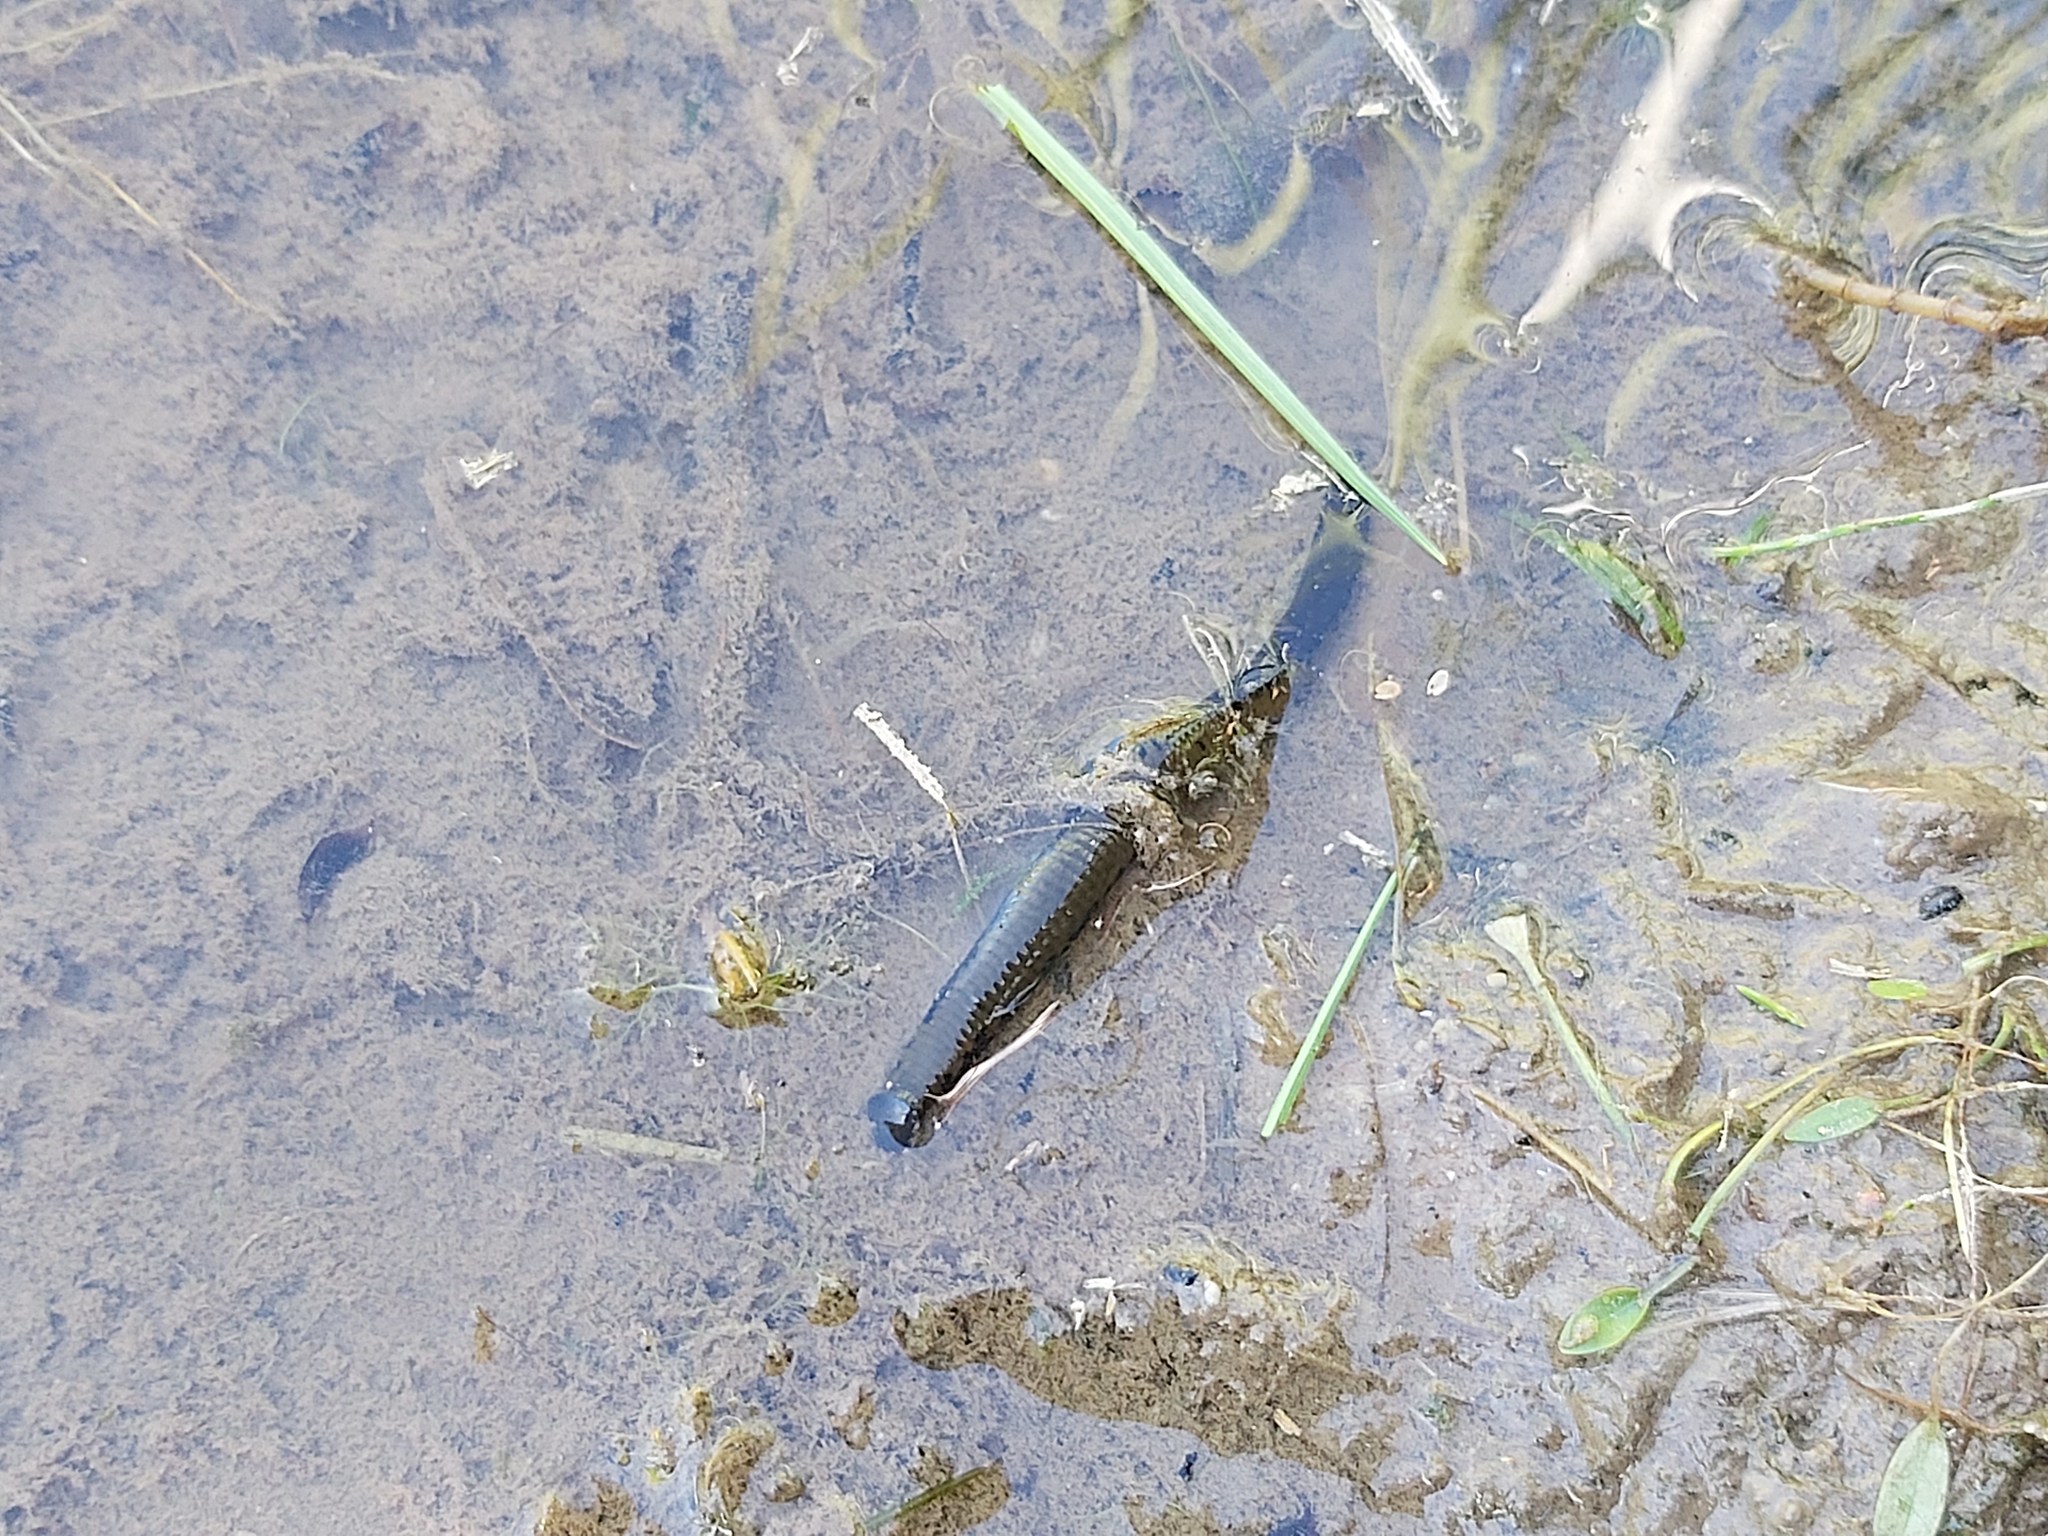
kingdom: Animalia
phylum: Annelida
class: Clitellata
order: Arhynchobdellida
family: Haemopidae
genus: Haemopis
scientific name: Haemopis sanguisuga
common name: Horse leech
